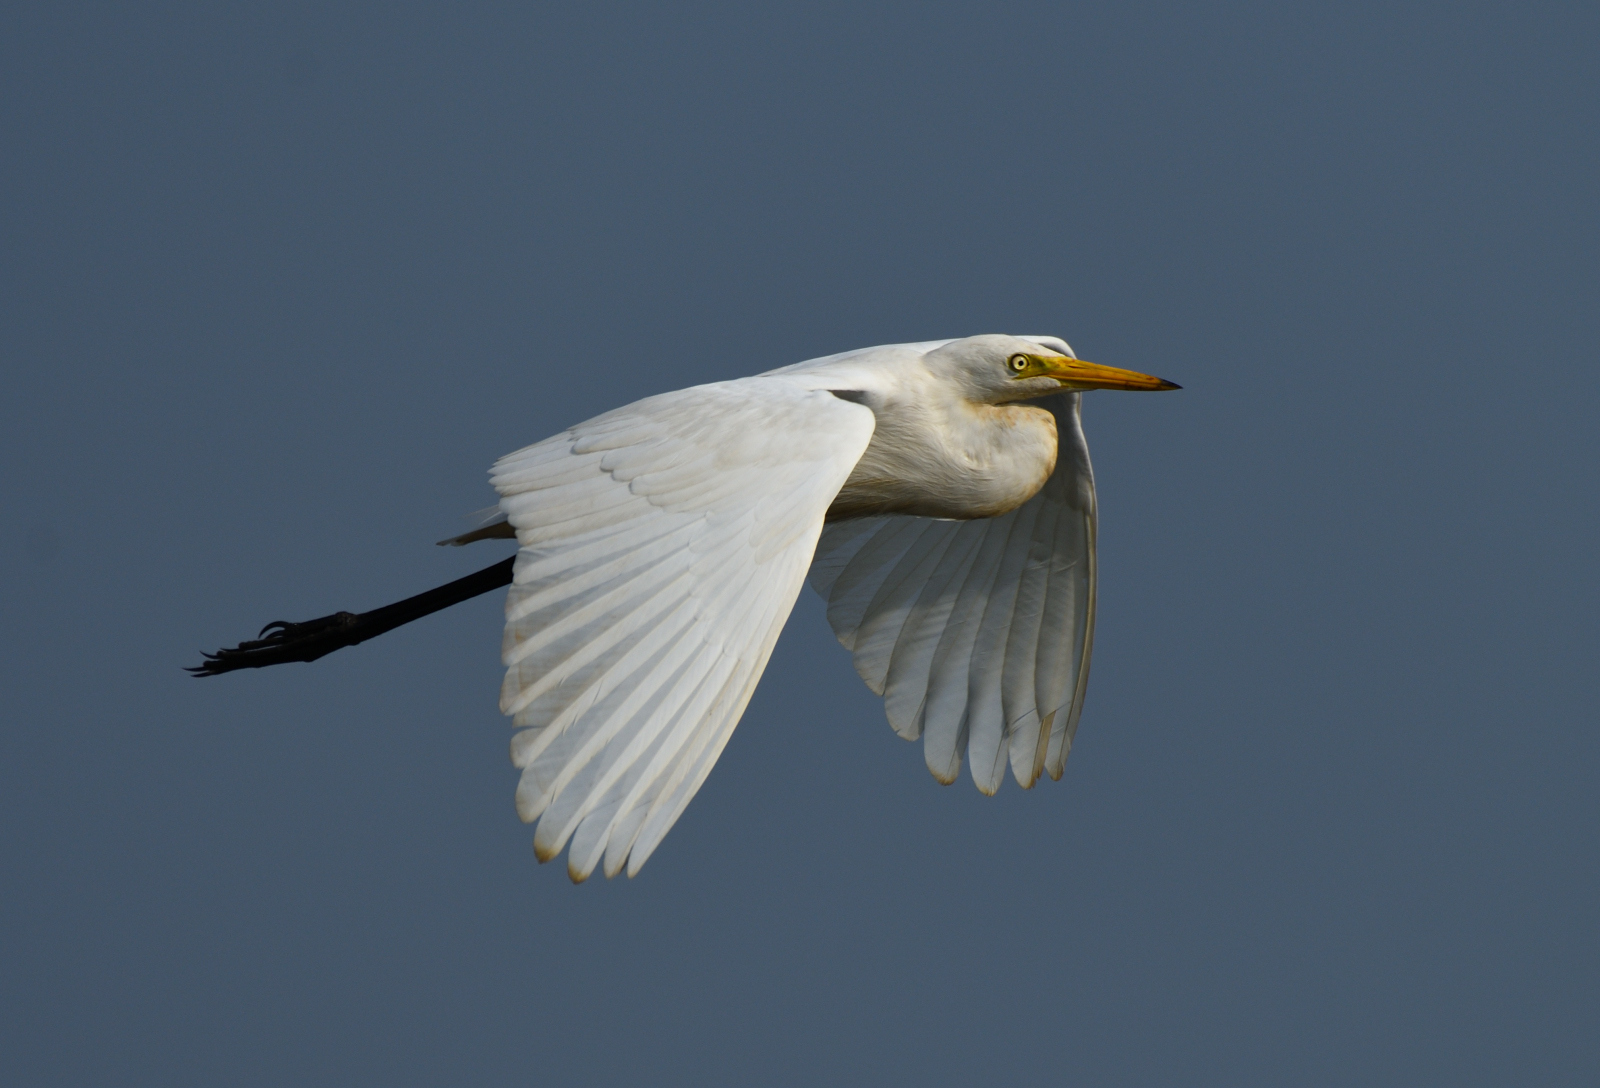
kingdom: Animalia
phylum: Chordata
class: Aves
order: Pelecaniformes
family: Ardeidae
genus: Bubulcus
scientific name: Bubulcus coromandus
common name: Eastern cattle egret
